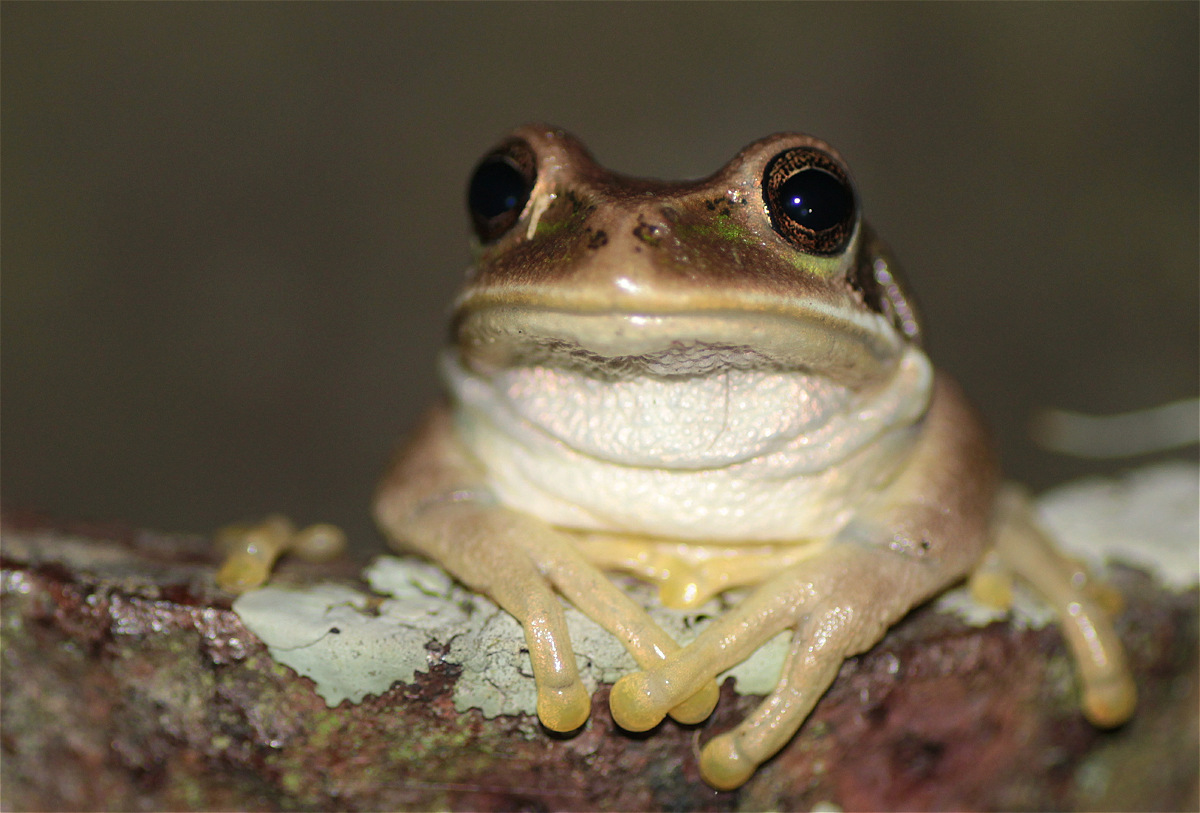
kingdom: Animalia
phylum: Chordata
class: Amphibia
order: Anura
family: Hemiphractidae
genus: Gastrotheca
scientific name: Gastrotheca cuencana
